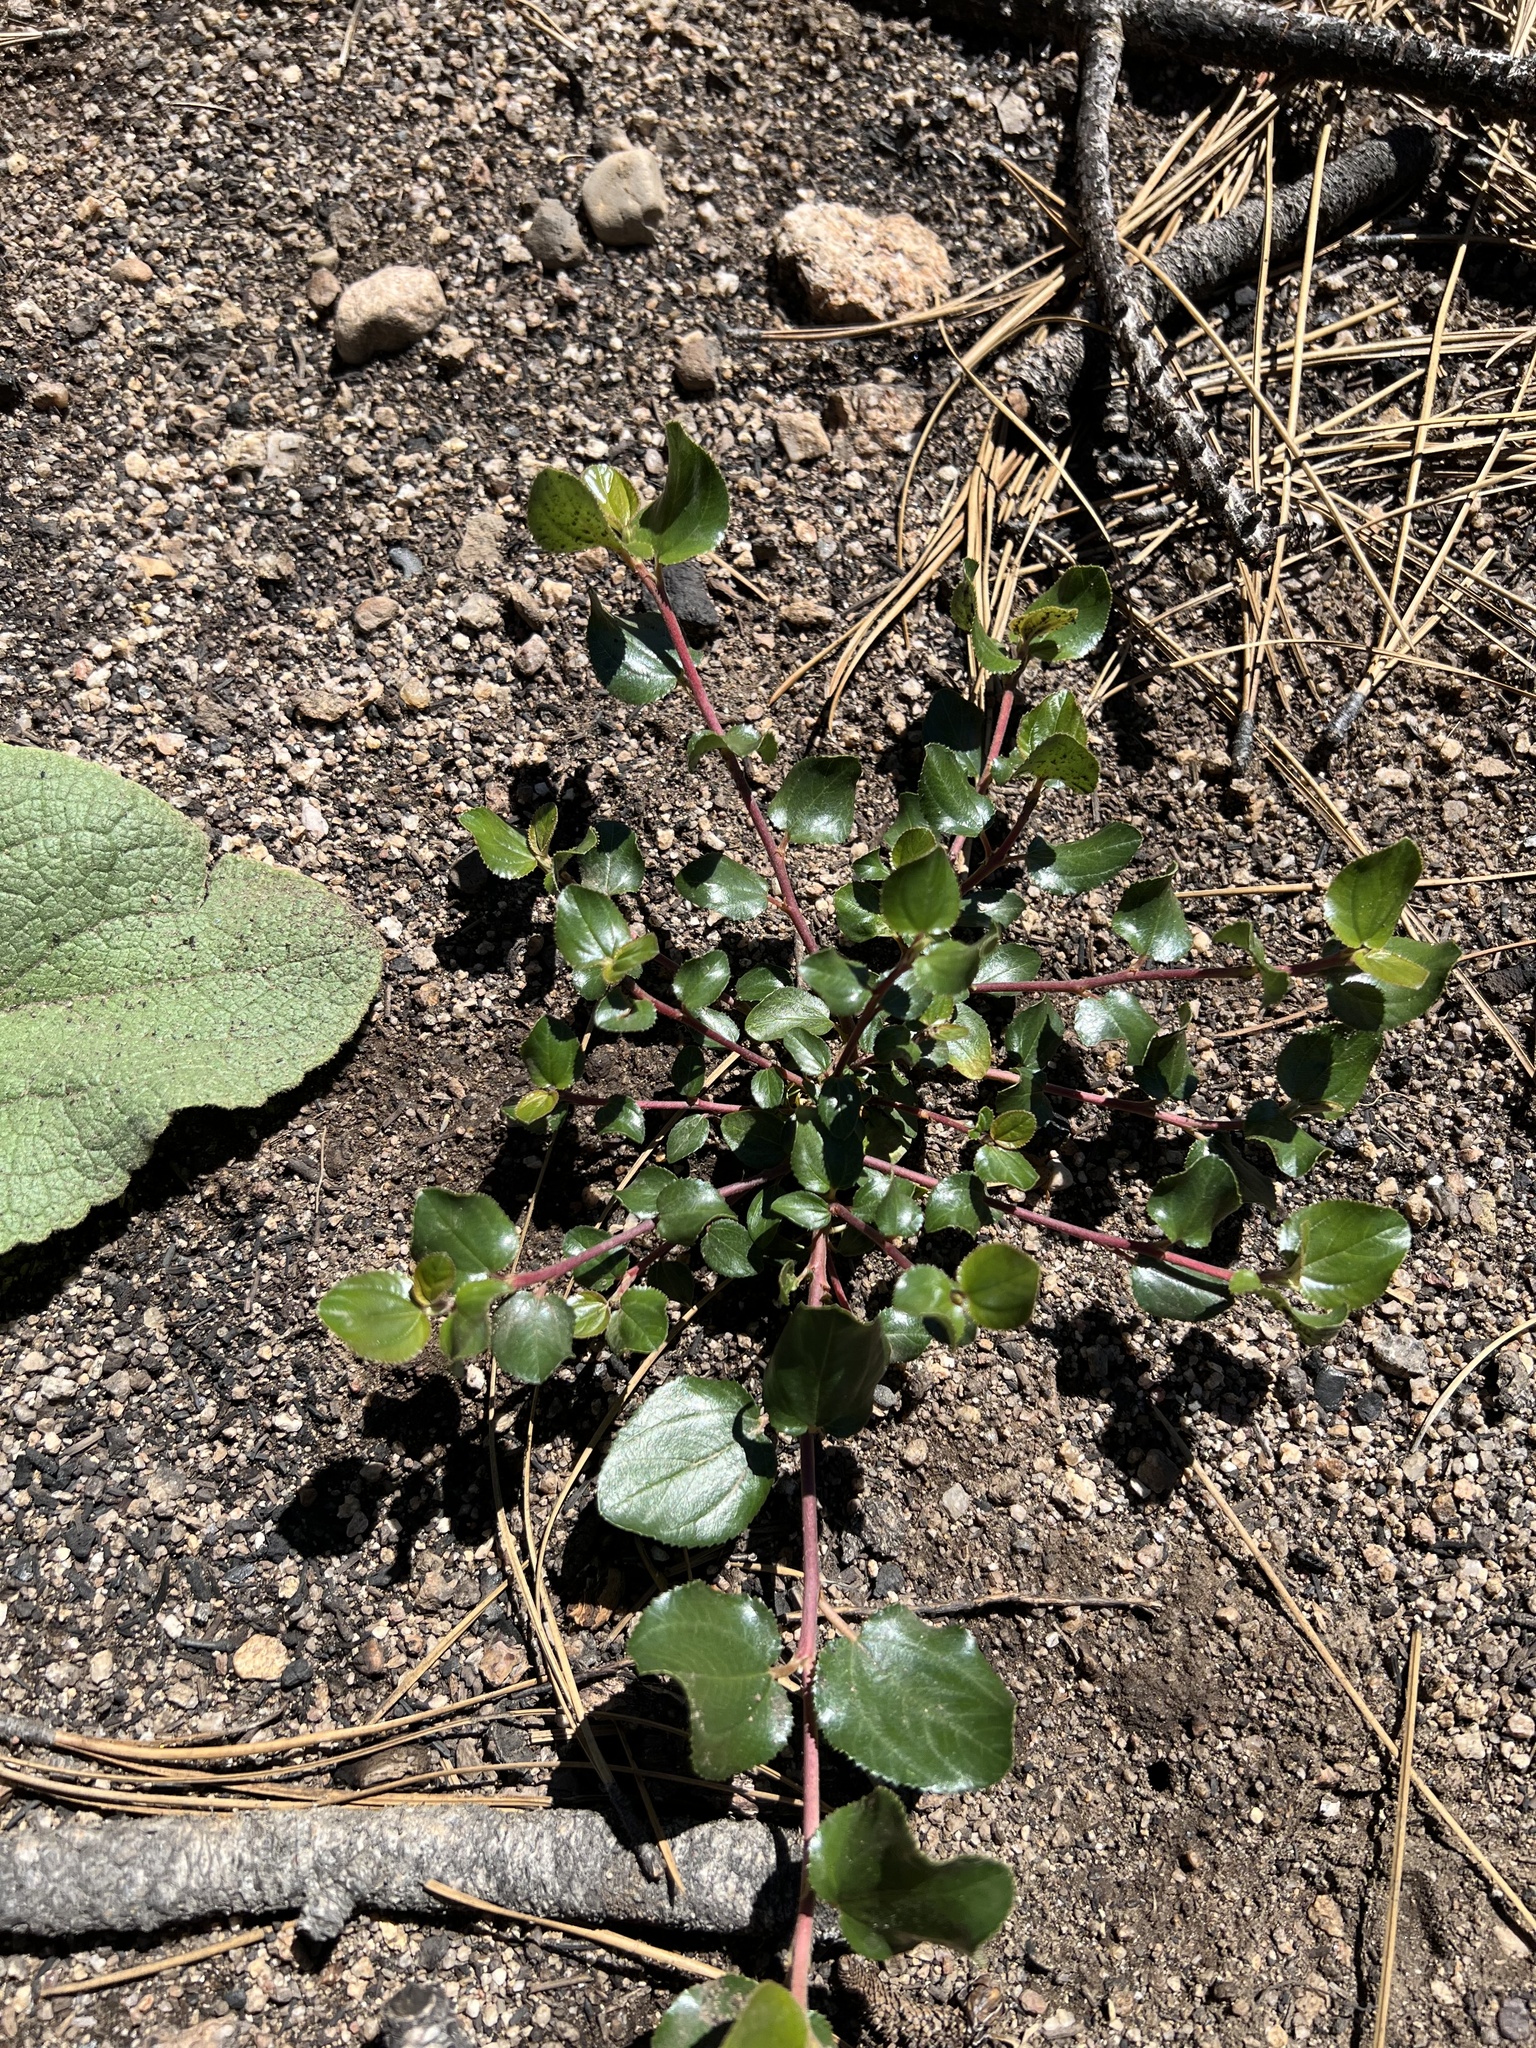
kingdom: Plantae
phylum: Tracheophyta
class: Magnoliopsida
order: Rosales
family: Rhamnaceae
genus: Ceanothus
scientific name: Ceanothus velutinus
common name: Snowbrush
